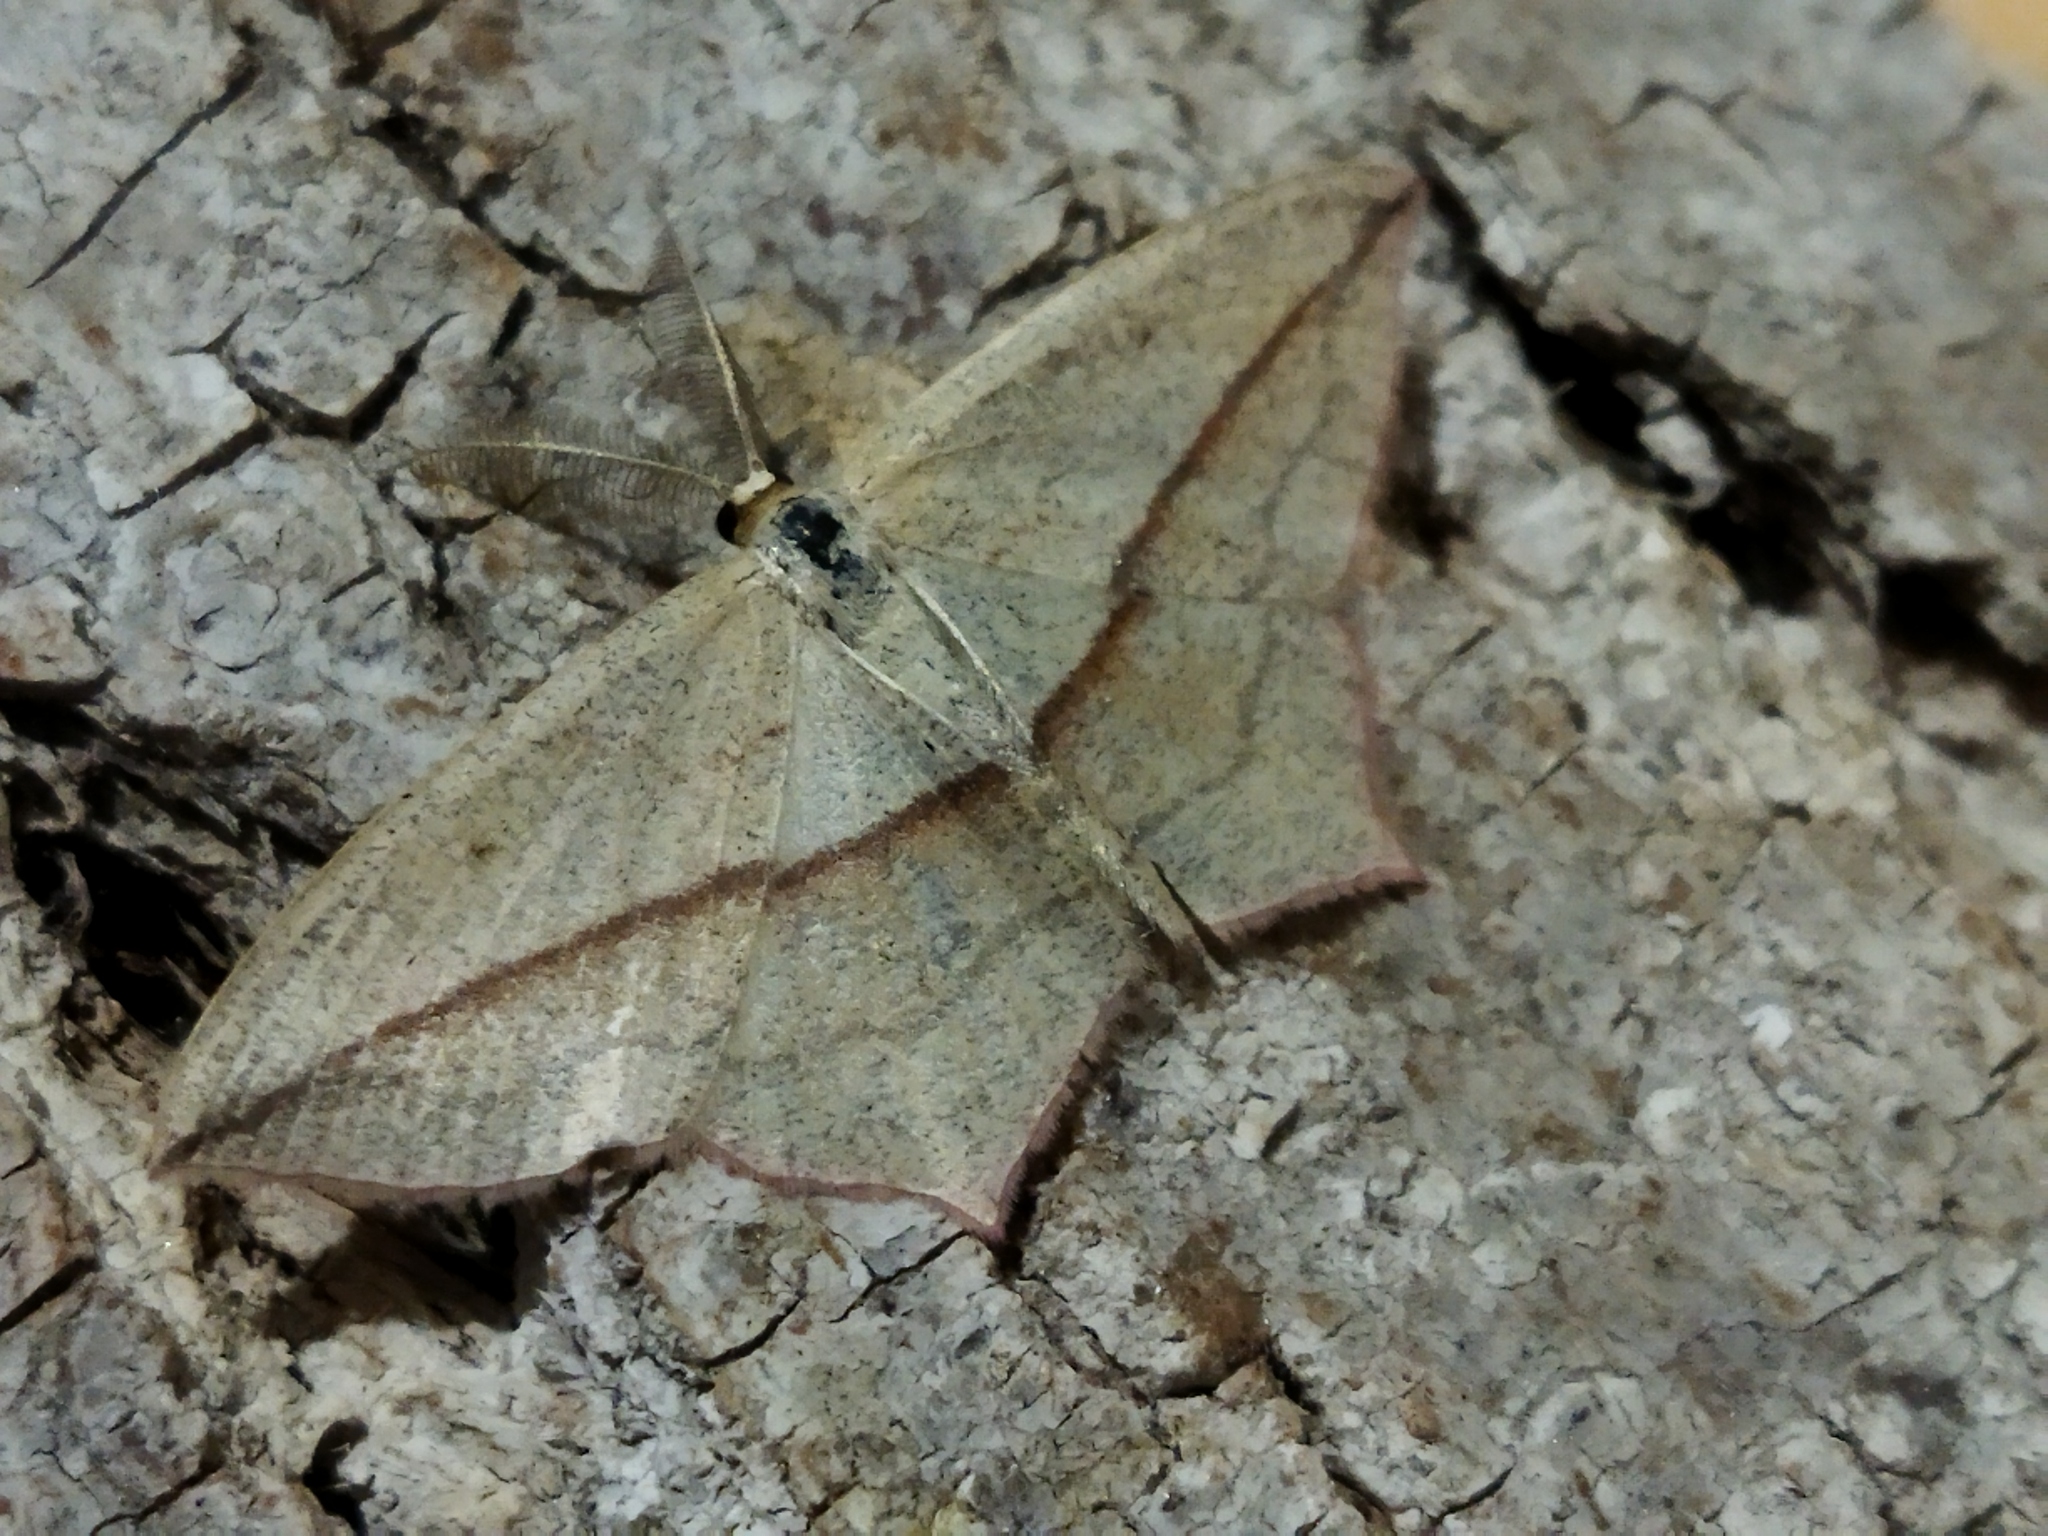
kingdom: Animalia
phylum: Arthropoda
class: Insecta
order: Lepidoptera
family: Geometridae
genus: Timandra
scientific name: Timandra comae
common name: Blood-vein
